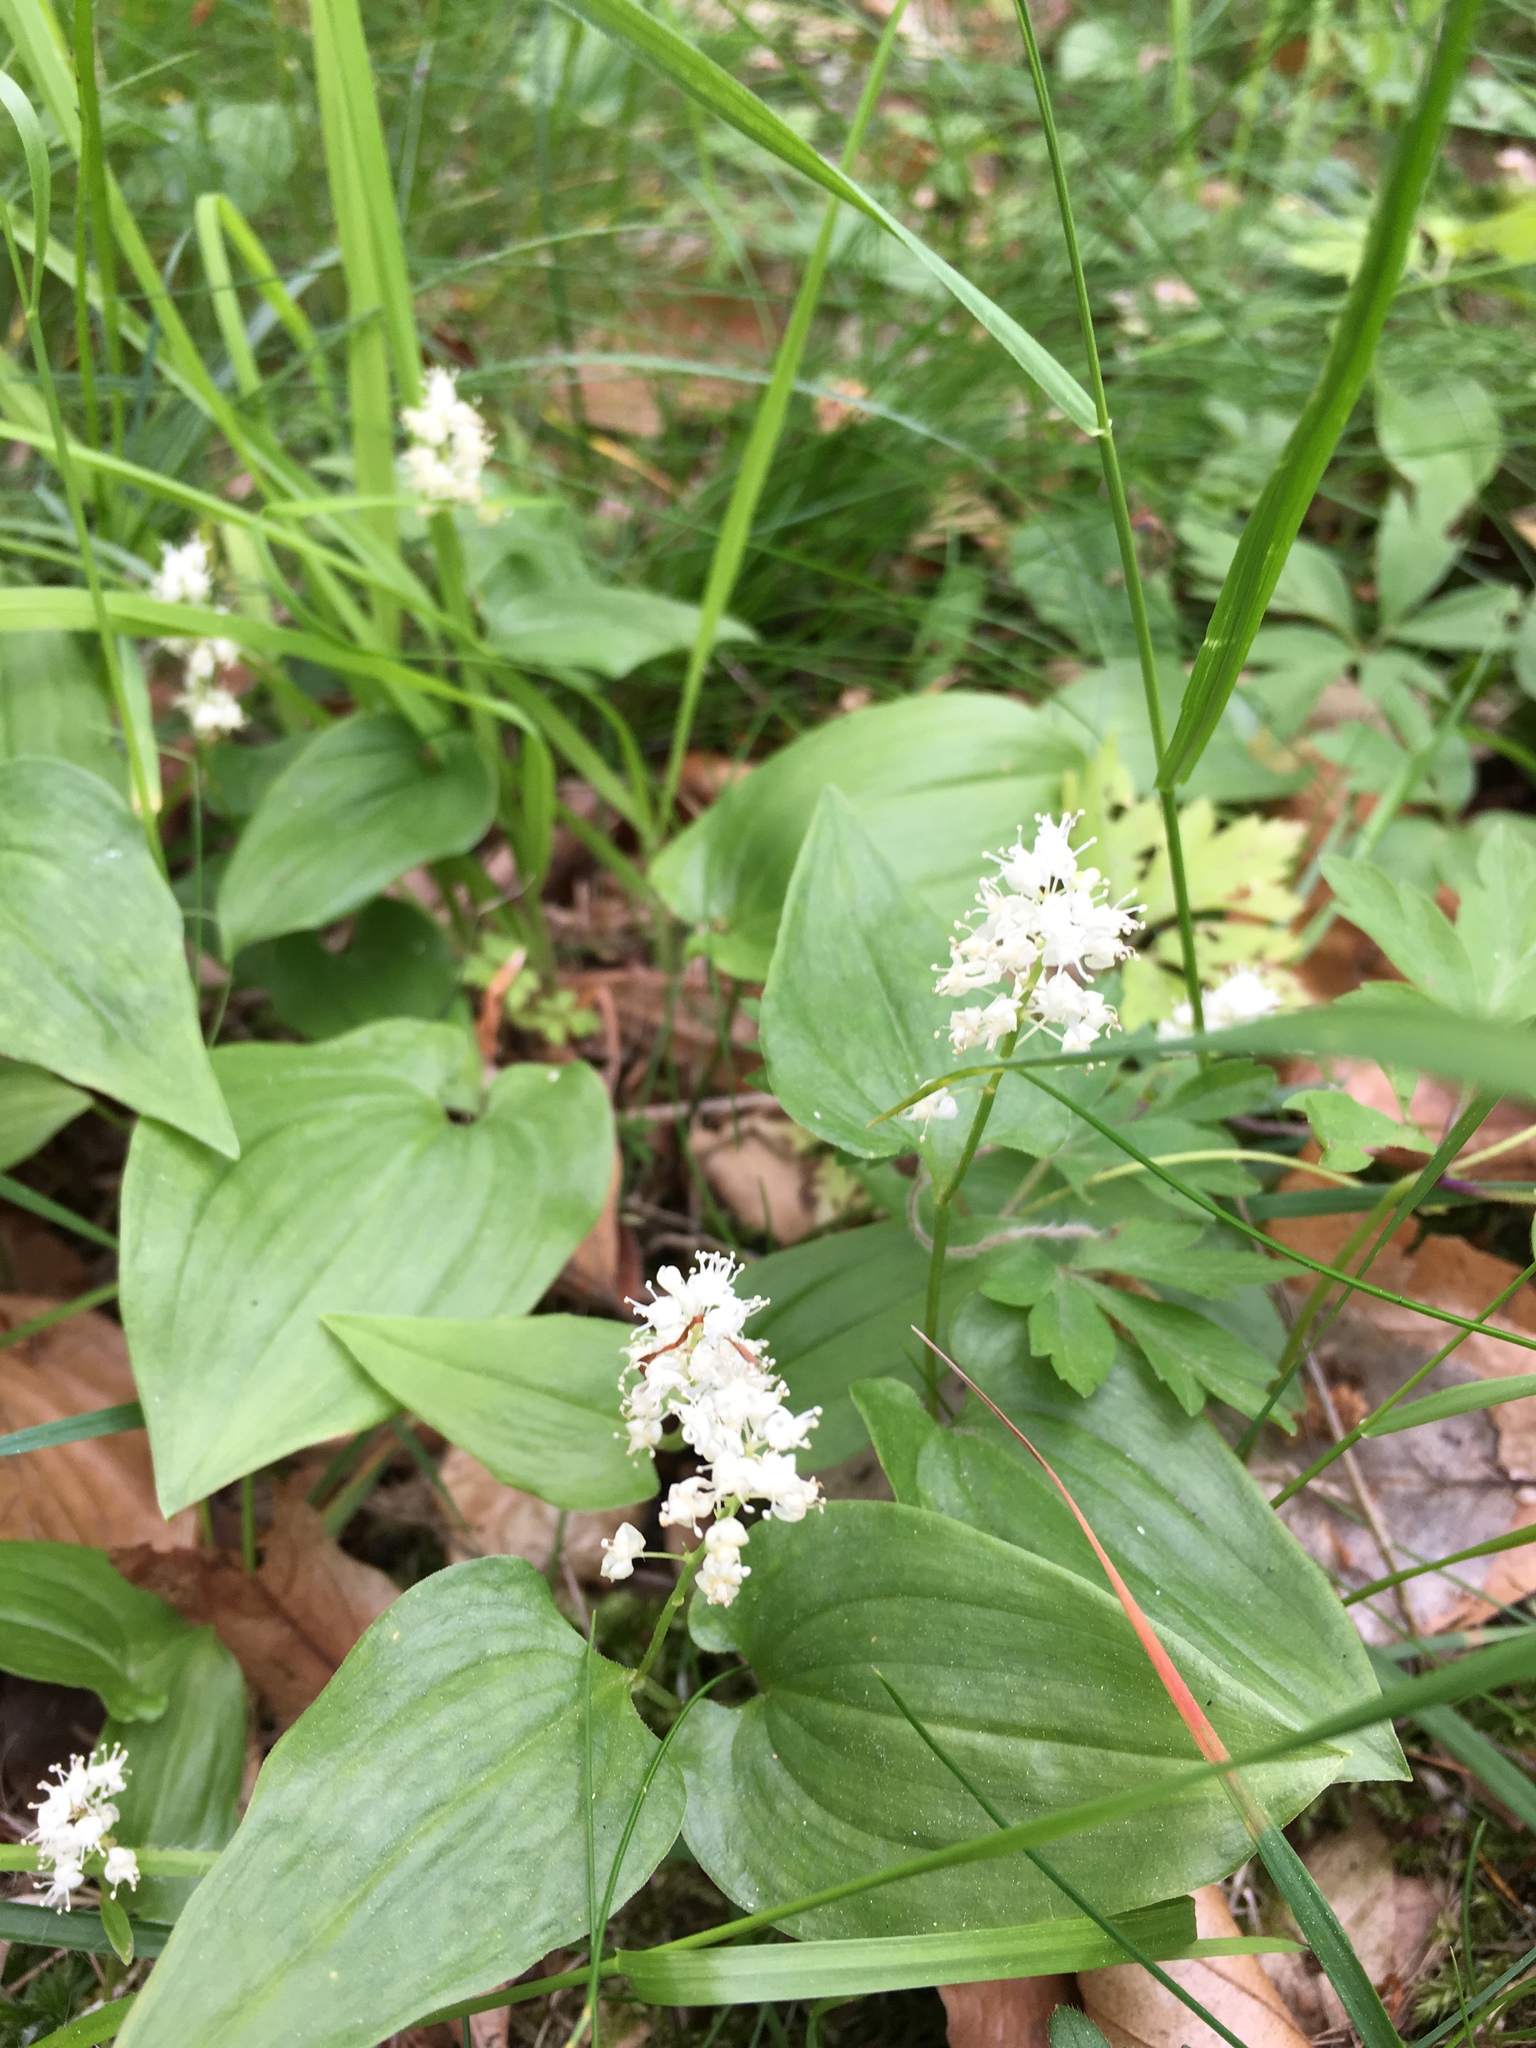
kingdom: Plantae
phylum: Tracheophyta
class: Liliopsida
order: Asparagales
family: Asparagaceae
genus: Maianthemum
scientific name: Maianthemum bifolium
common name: May lily
